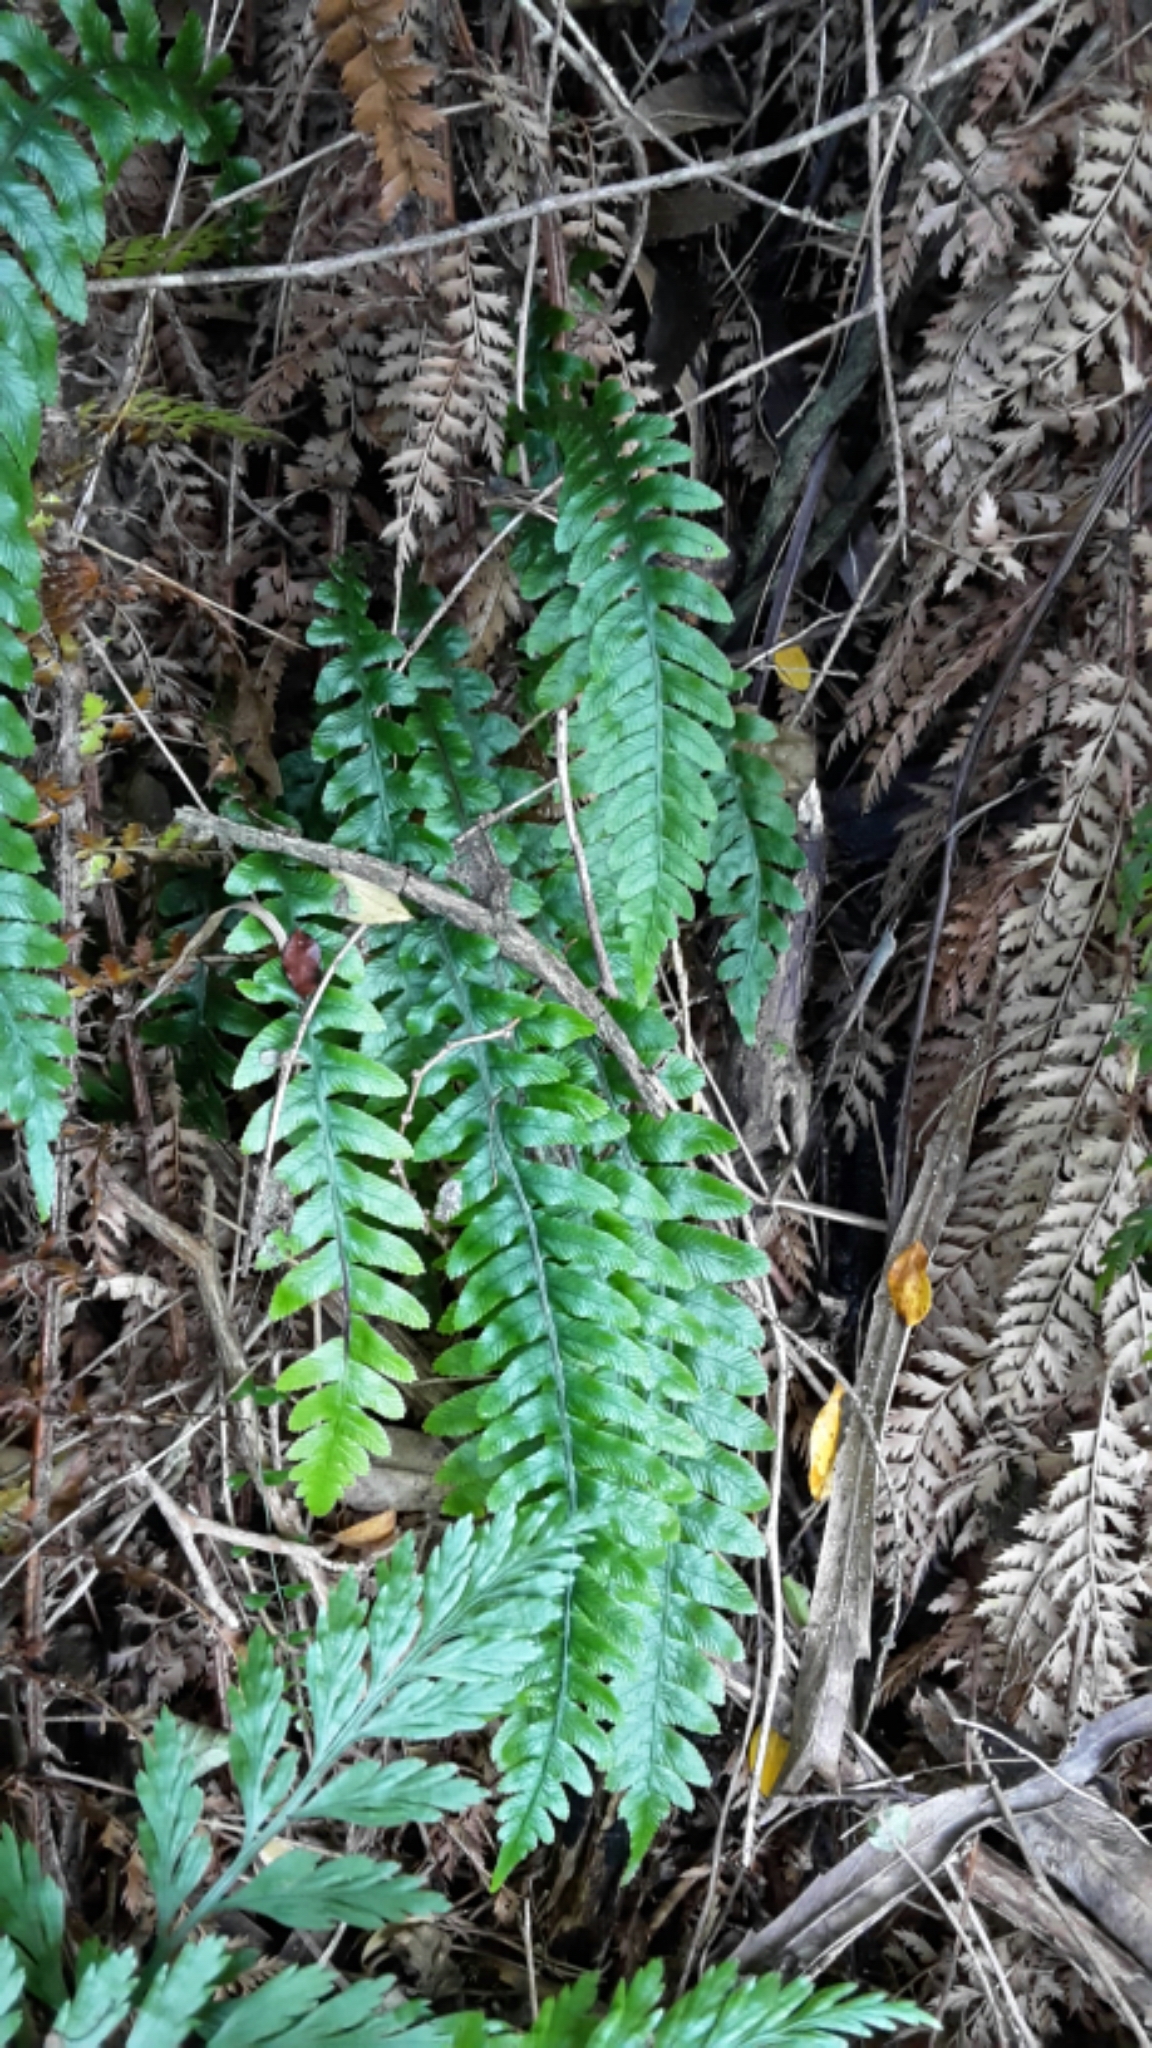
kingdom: Plantae
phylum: Tracheophyta
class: Polypodiopsida
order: Polypodiales
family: Blechnaceae
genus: Austroblechnum
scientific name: Austroblechnum lanceolatum
